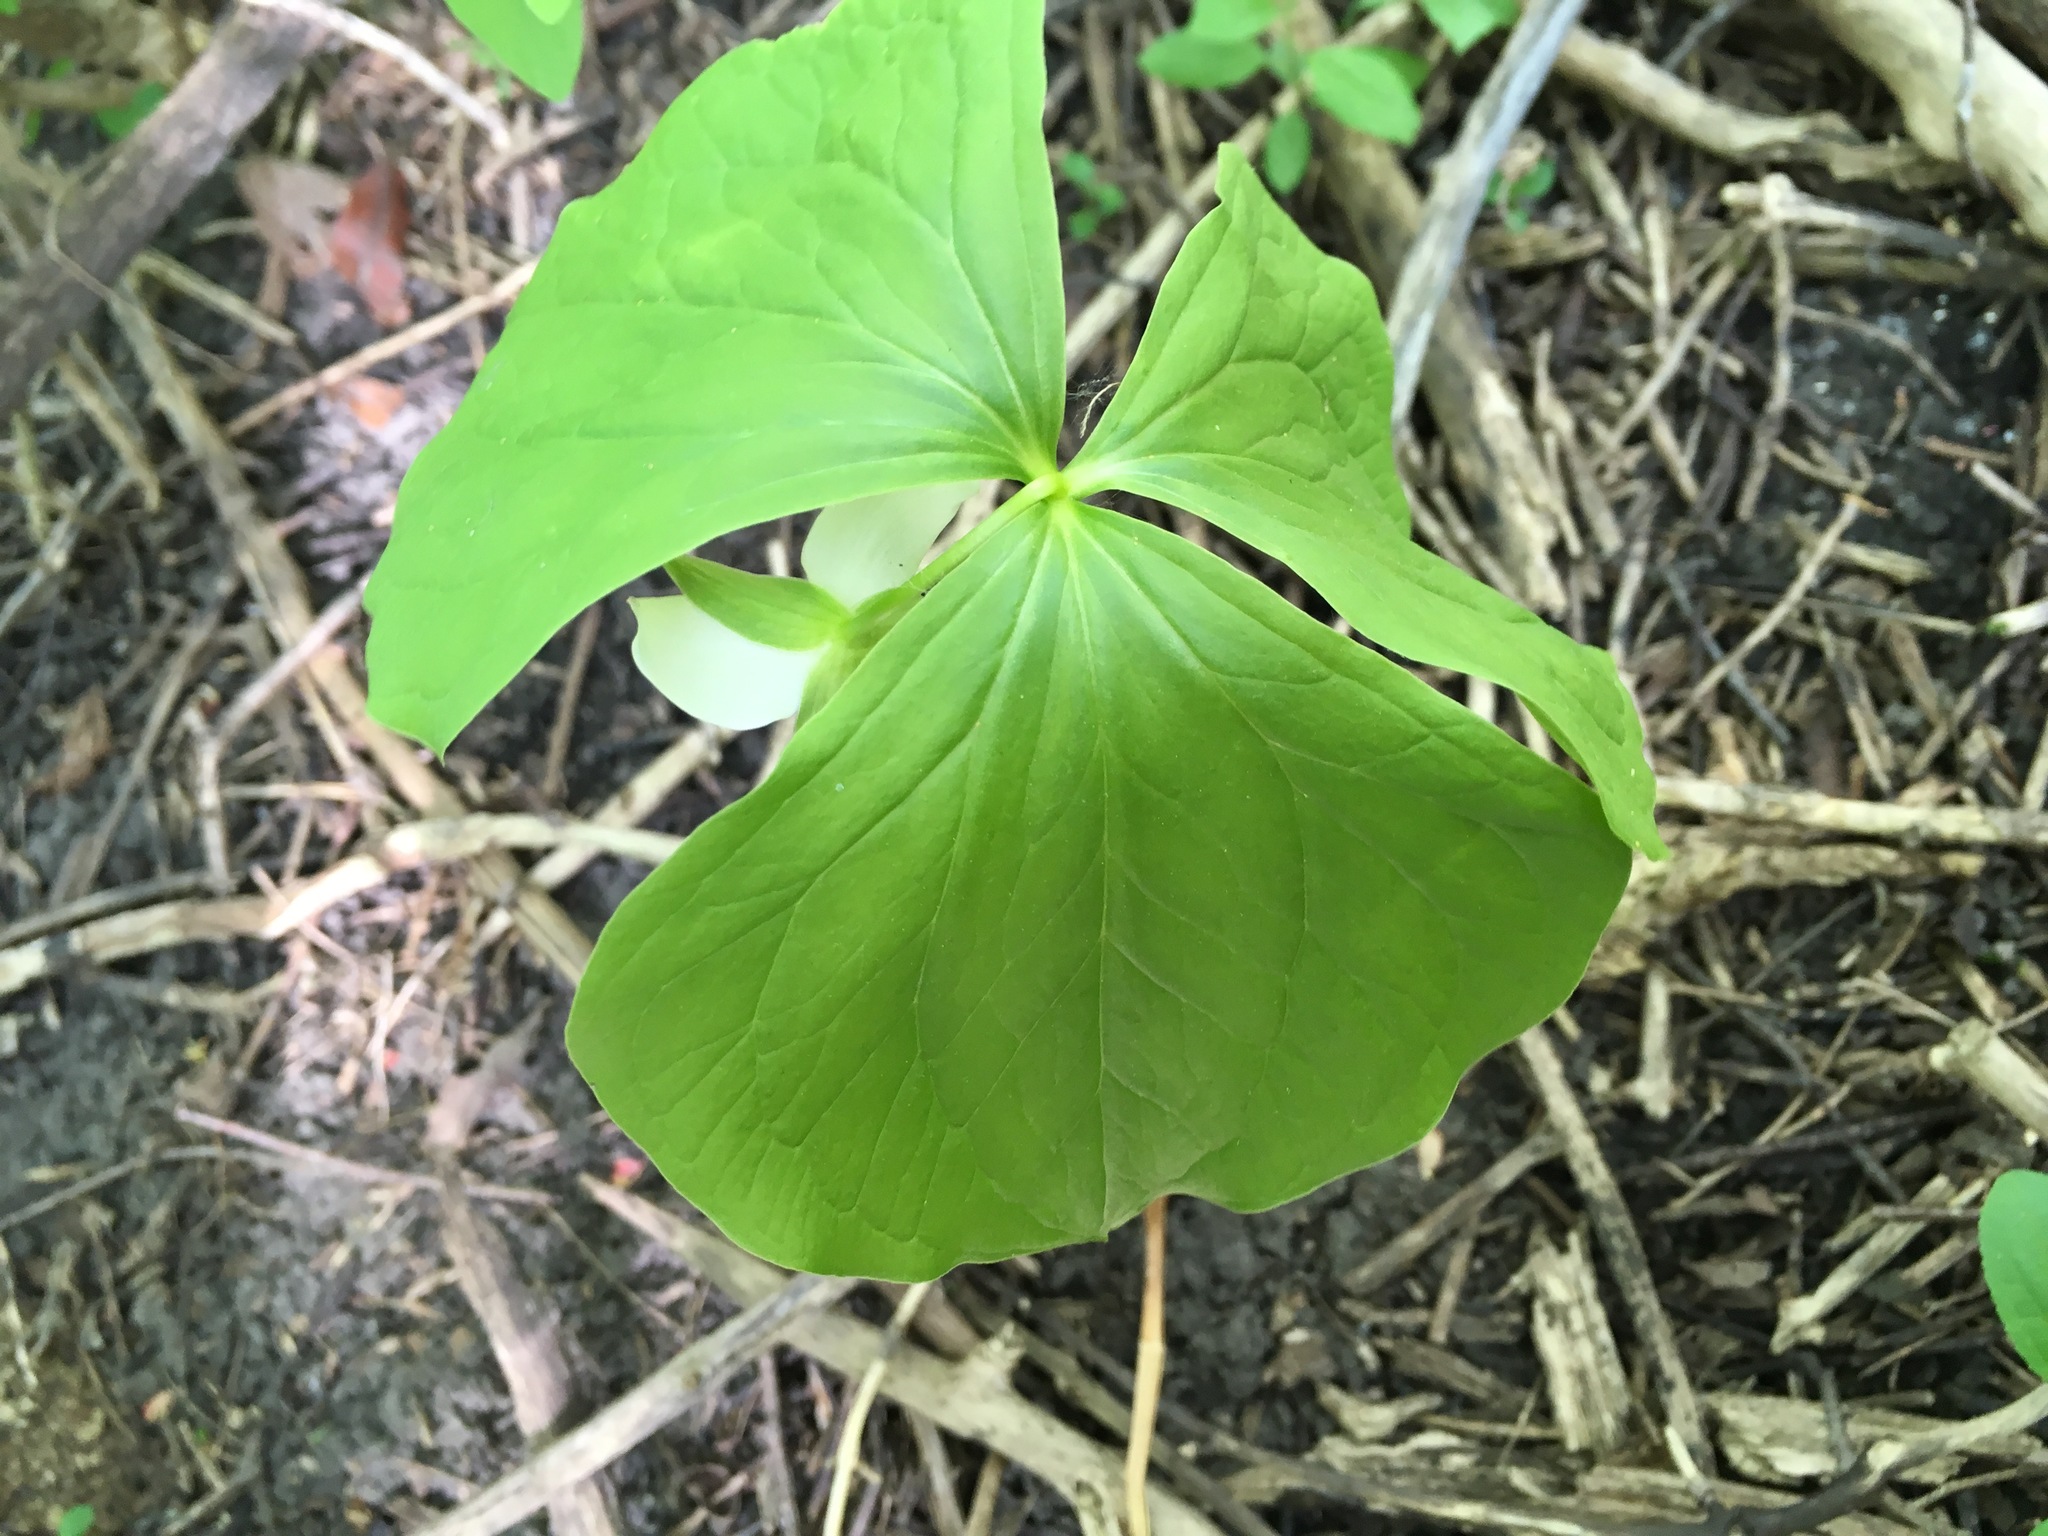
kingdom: Plantae
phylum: Tracheophyta
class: Liliopsida
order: Liliales
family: Melanthiaceae
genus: Trillium
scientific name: Trillium cernuum
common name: Nodding trillium
